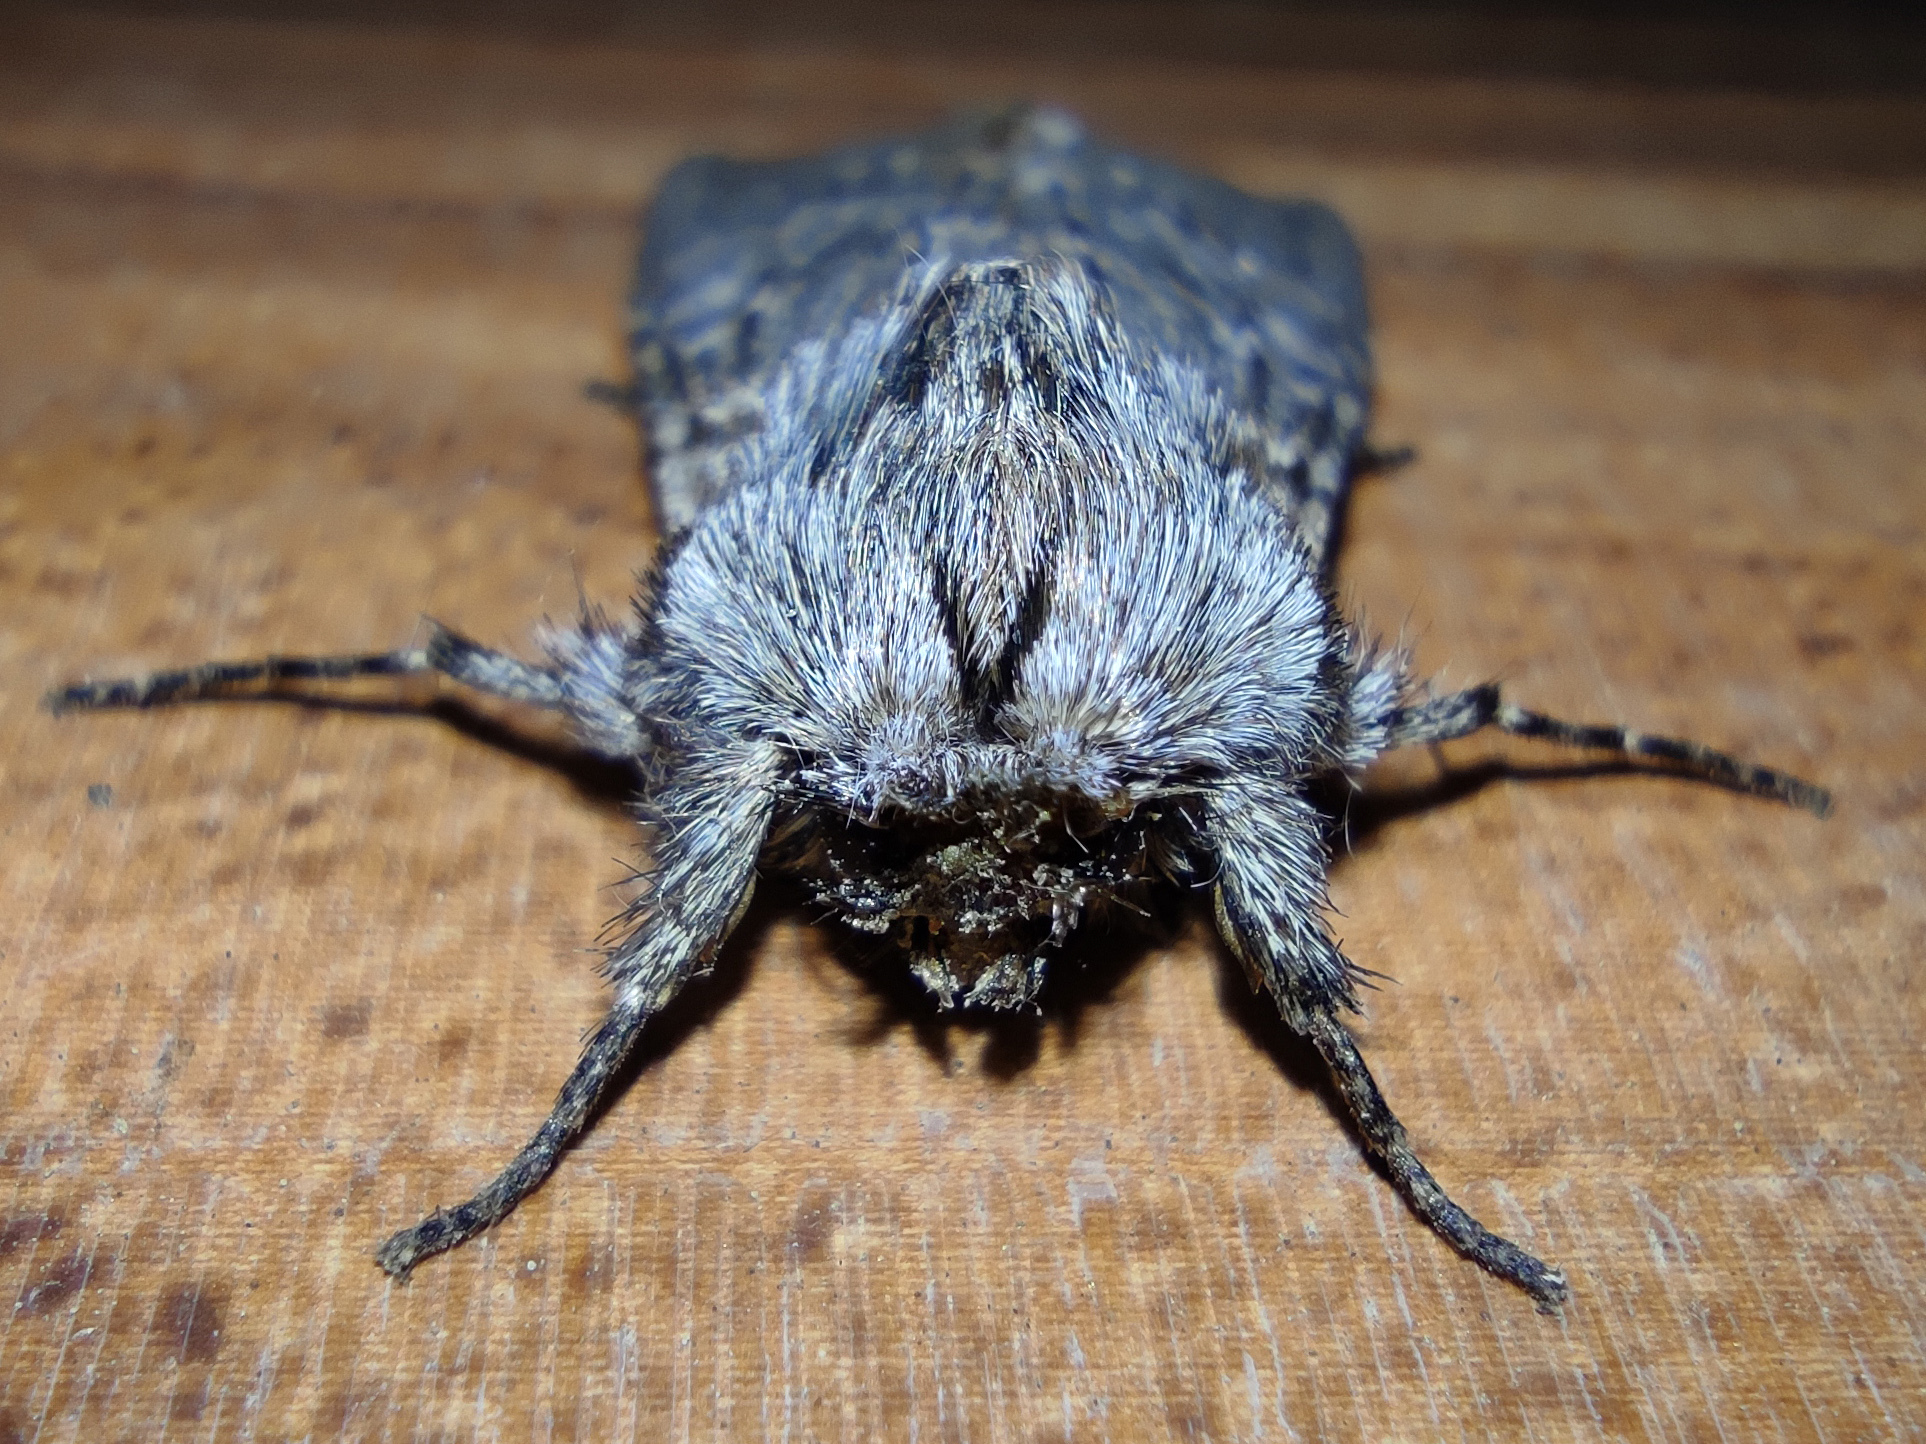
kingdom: Animalia
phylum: Arthropoda
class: Insecta
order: Lepidoptera
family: Notodontidae
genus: Dicranura
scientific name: Dicranura ulmi
